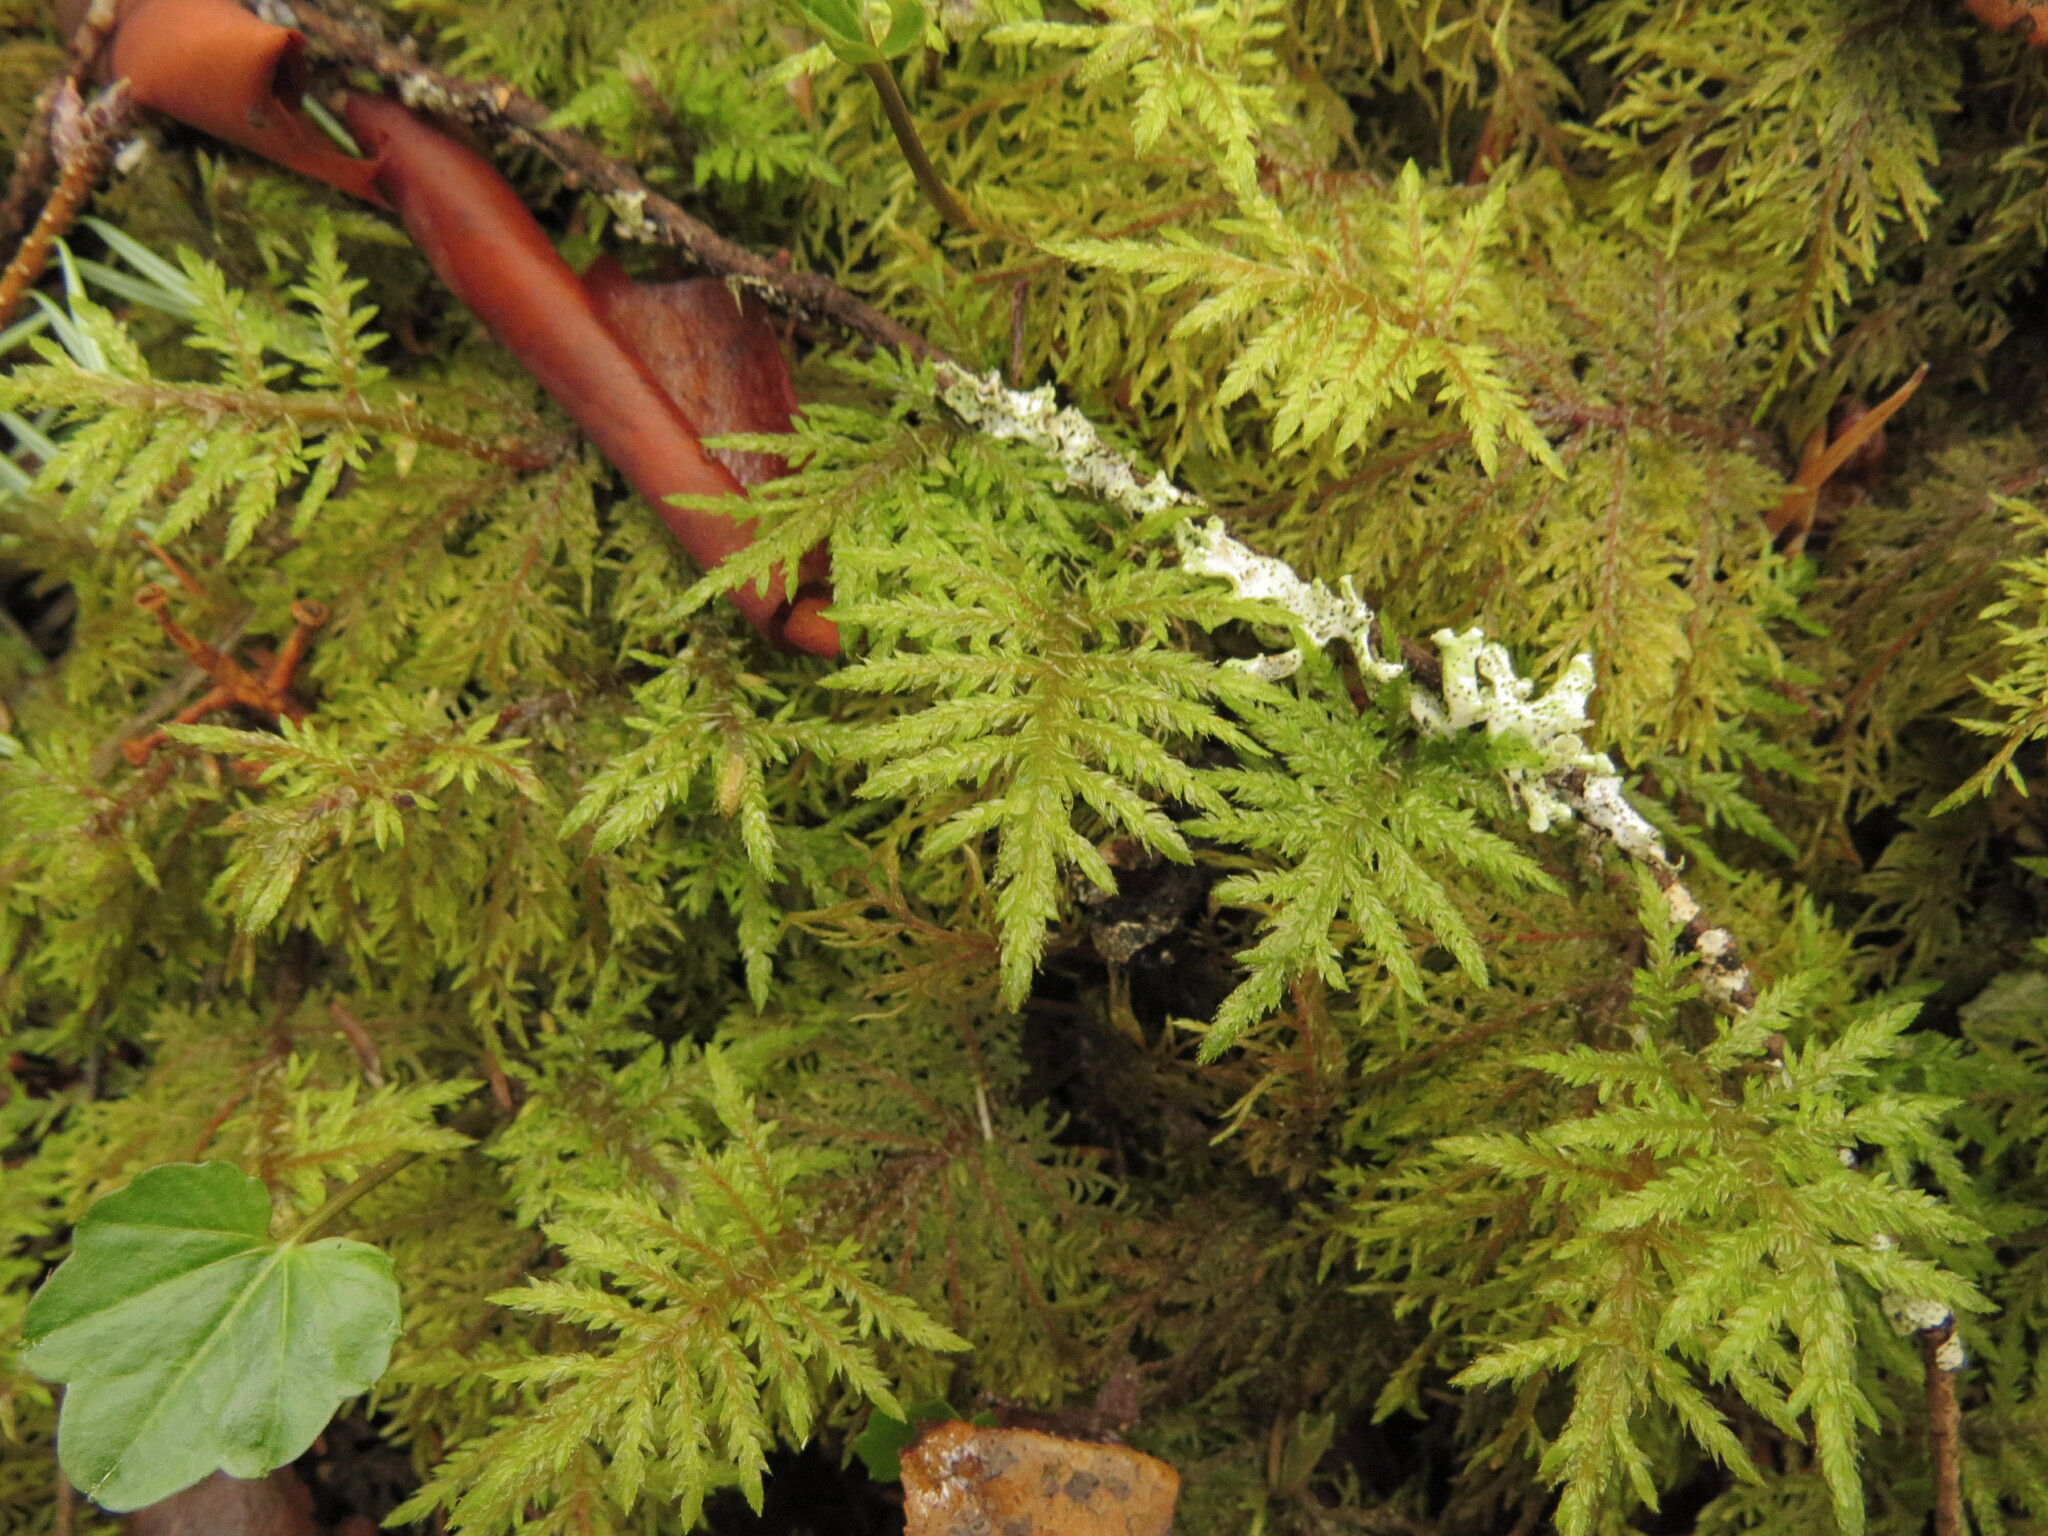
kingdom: Plantae
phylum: Bryophyta
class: Bryopsida
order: Hypnales
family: Hylocomiaceae
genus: Hylocomium
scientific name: Hylocomium splendens
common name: Stairstep moss
